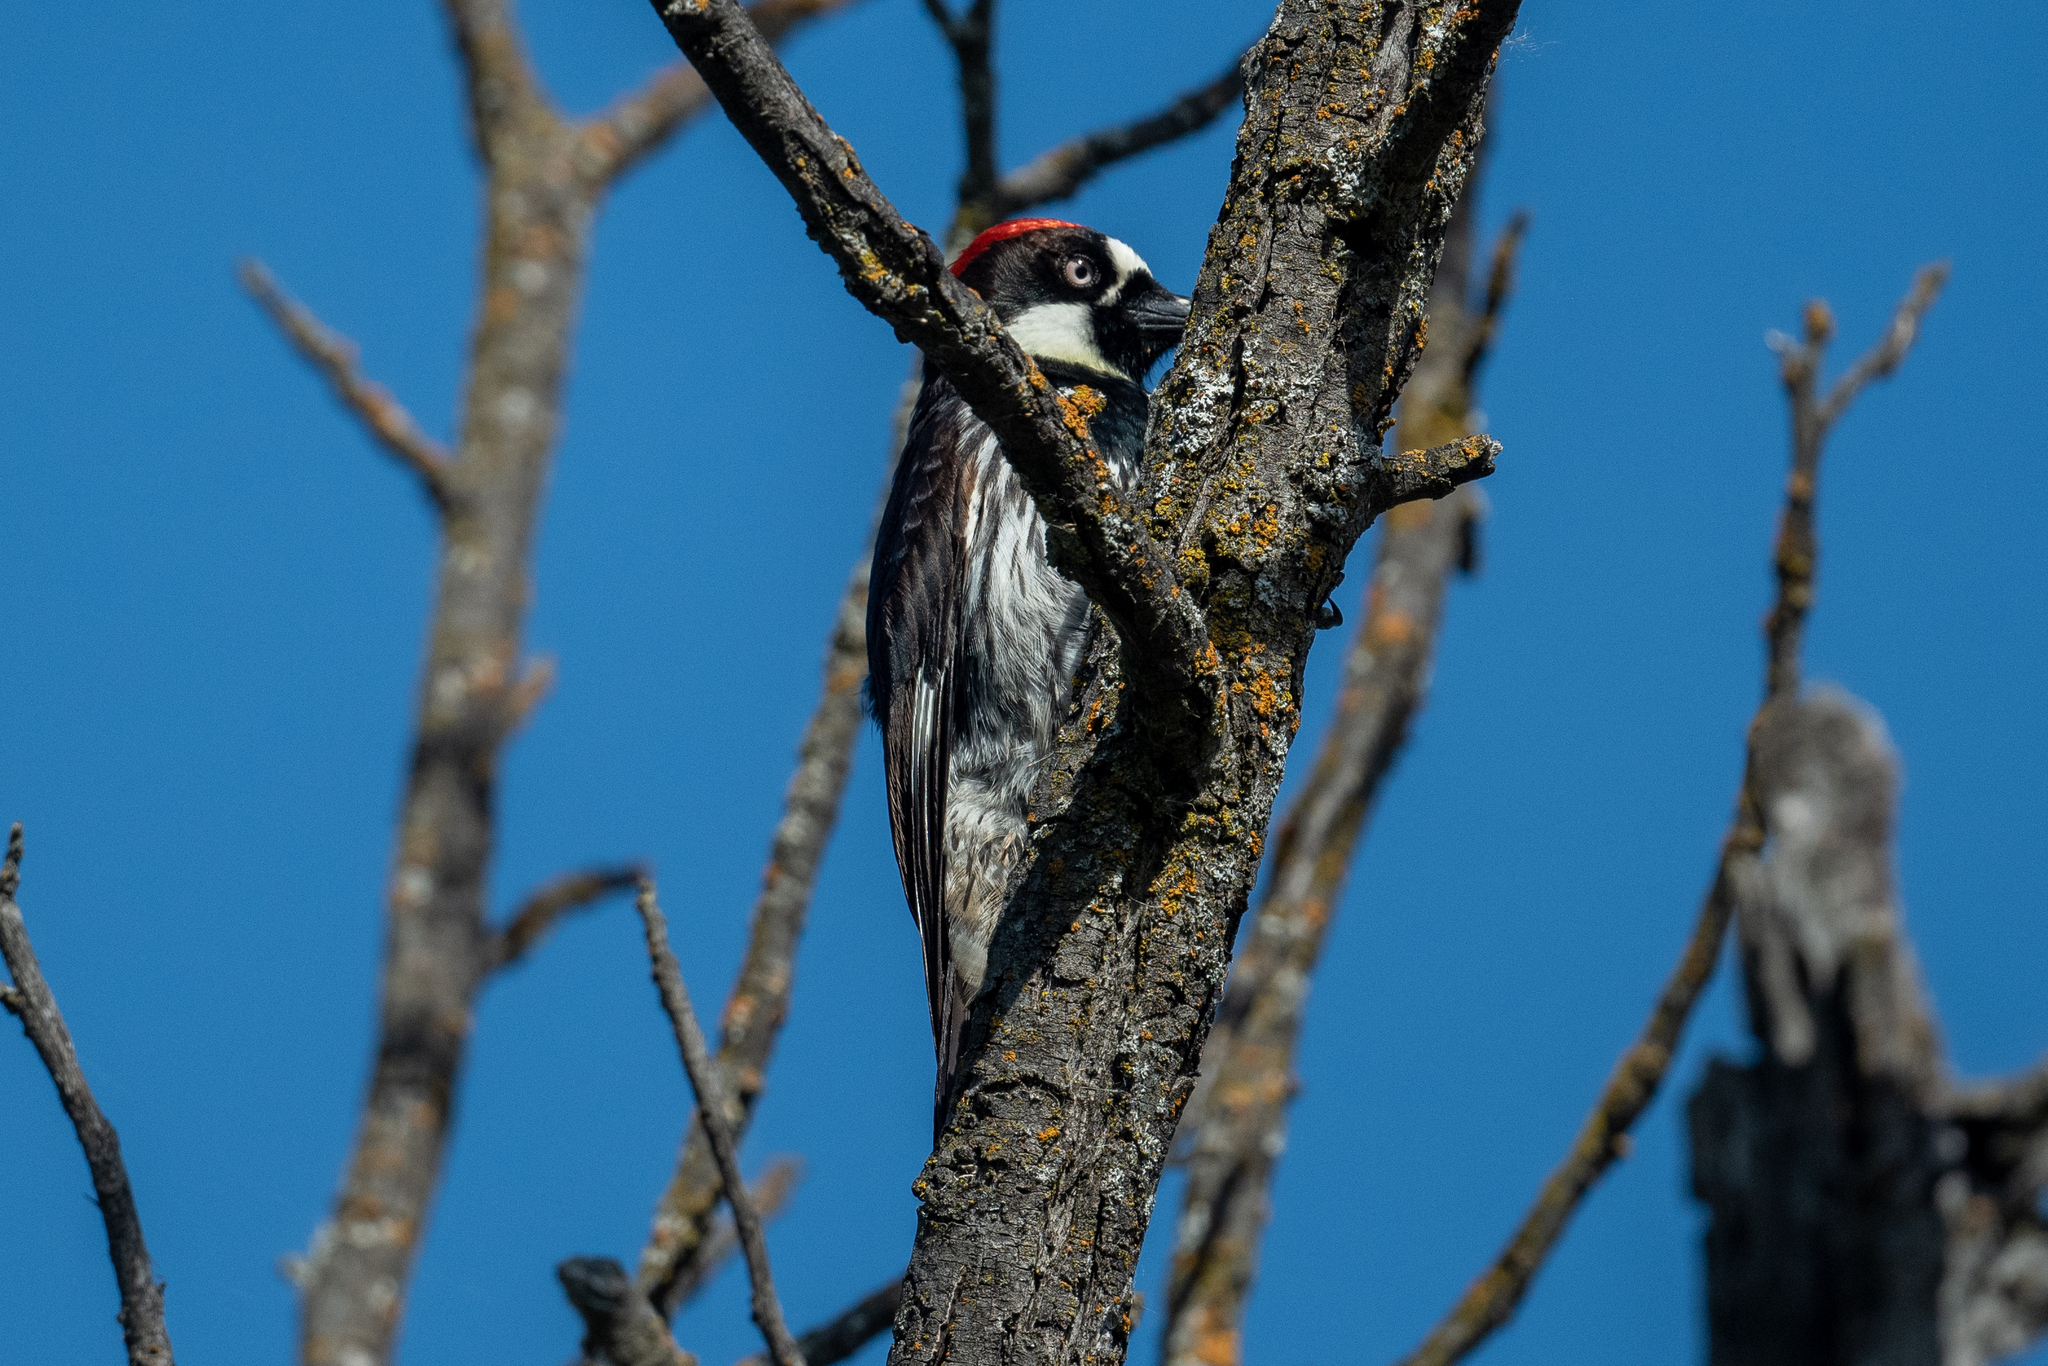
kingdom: Animalia
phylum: Chordata
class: Aves
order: Piciformes
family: Picidae
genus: Melanerpes
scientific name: Melanerpes formicivorus
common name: Acorn woodpecker
